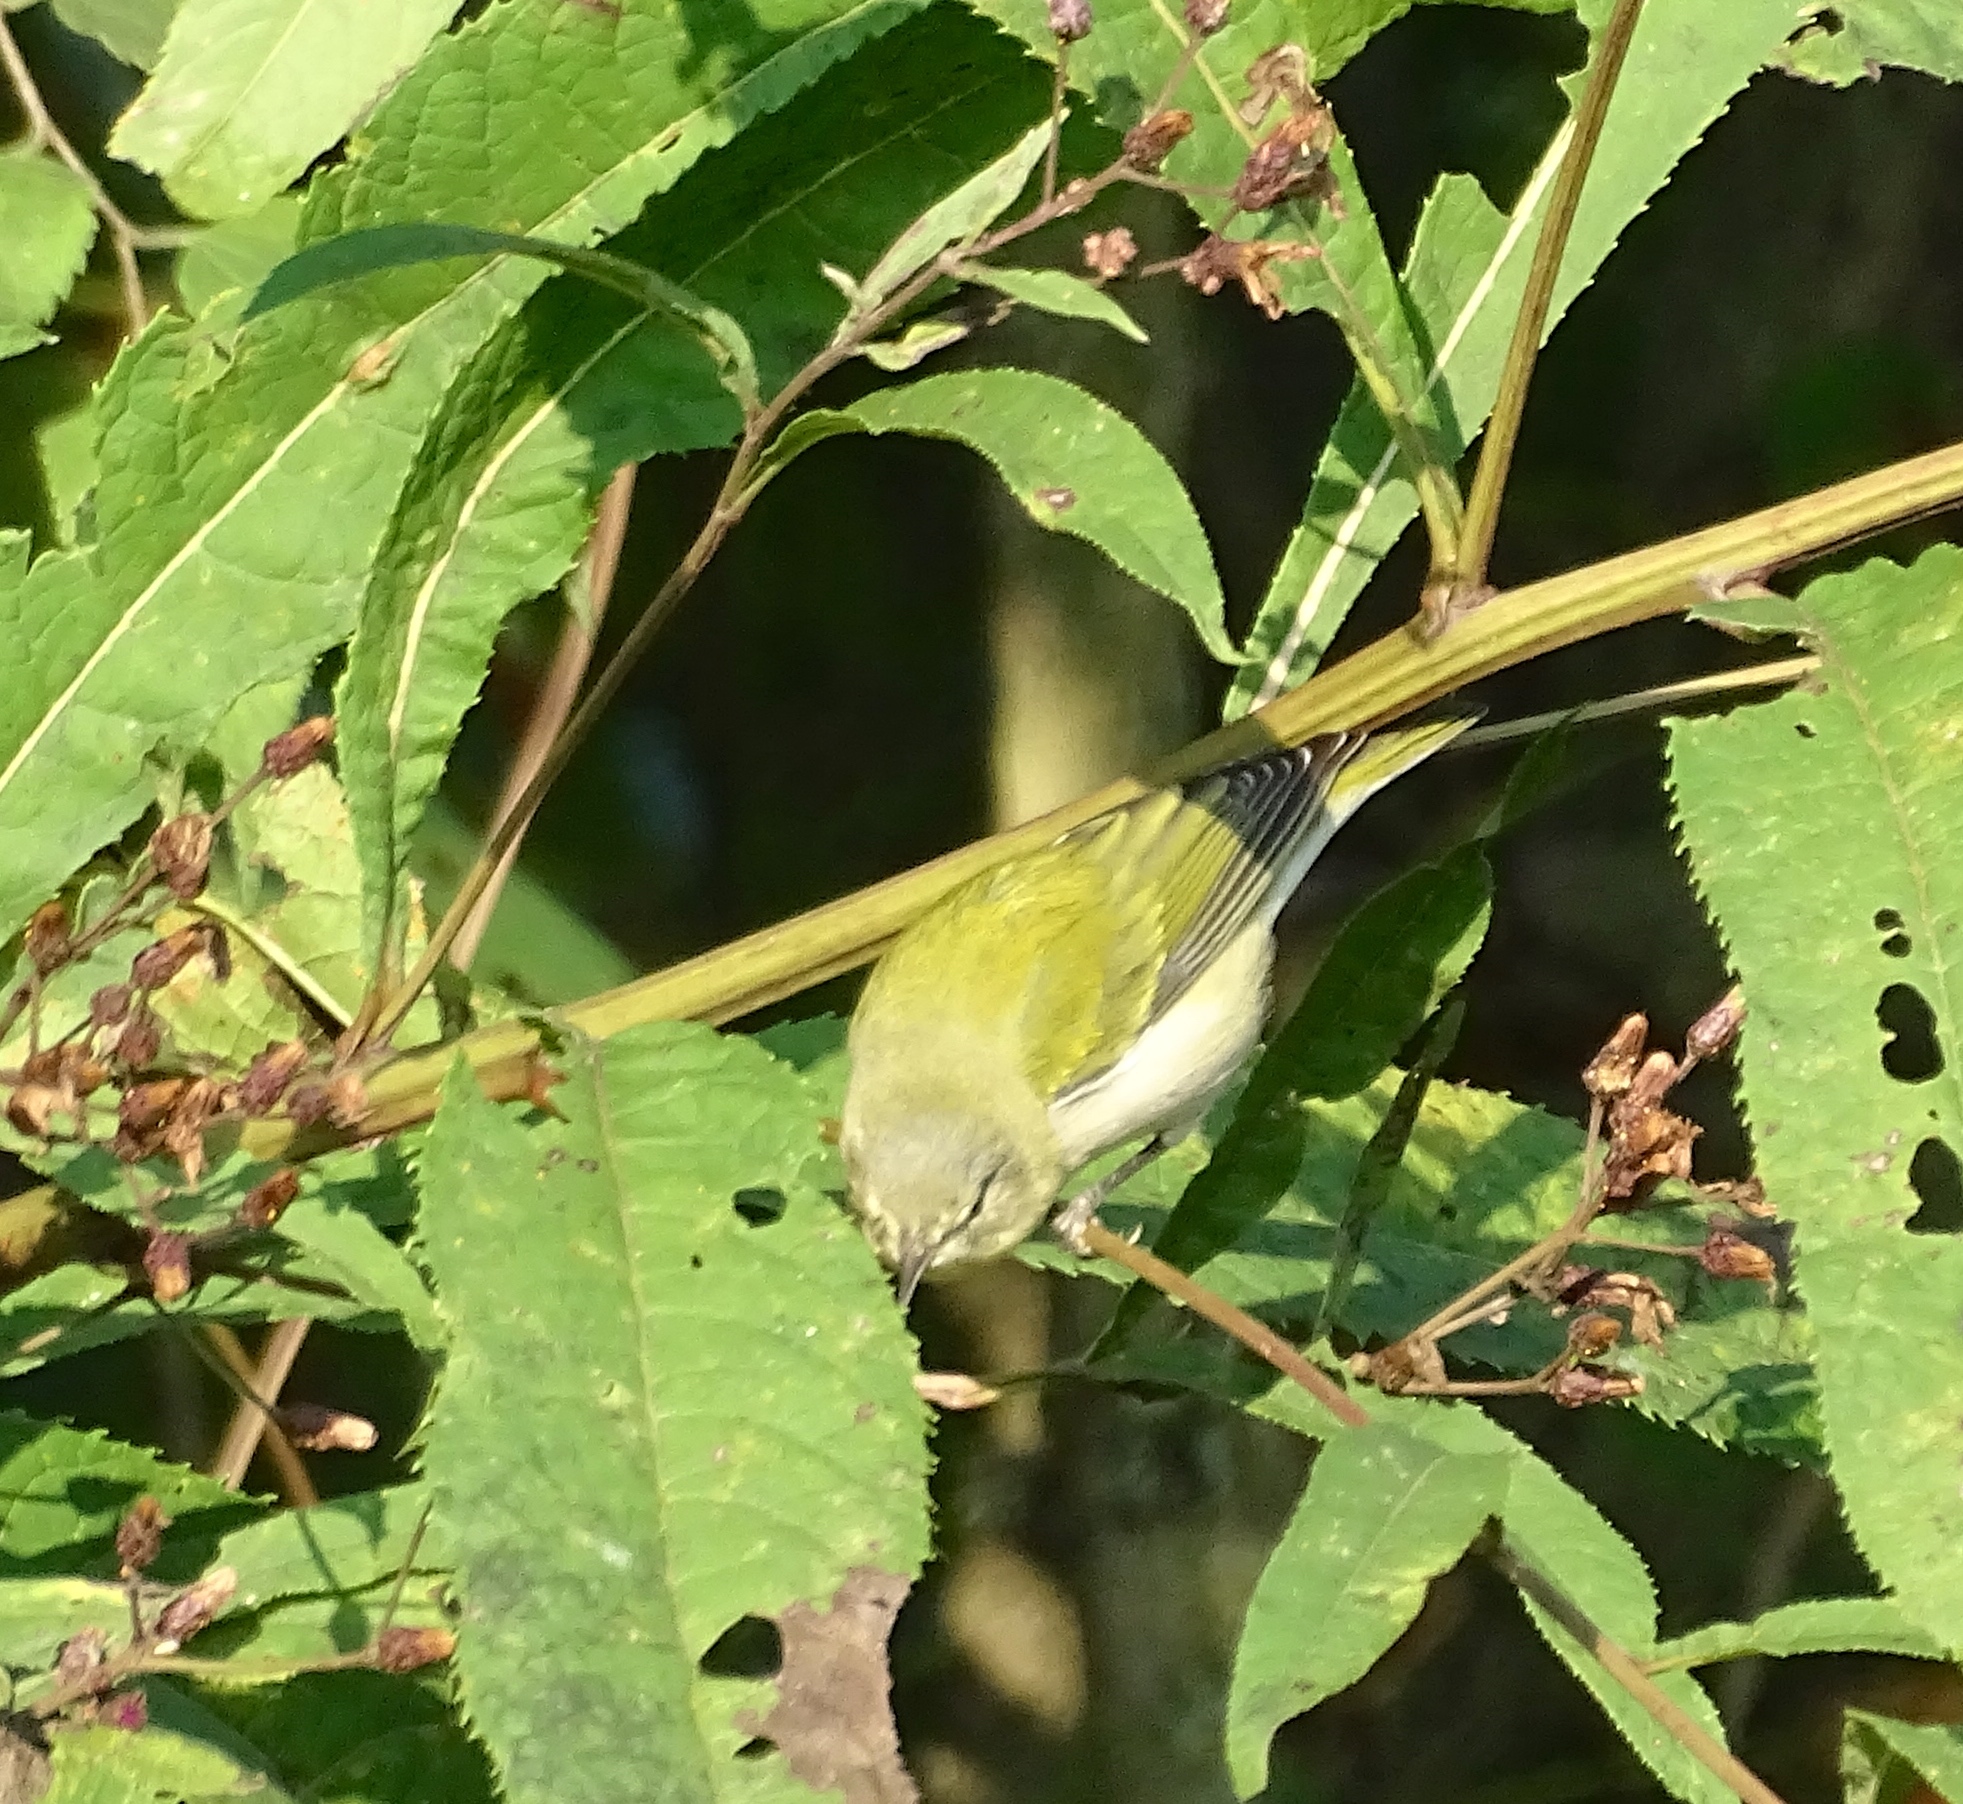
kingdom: Animalia
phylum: Chordata
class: Aves
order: Passeriformes
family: Parulidae
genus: Leiothlypis
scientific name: Leiothlypis peregrina
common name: Tennessee warbler
